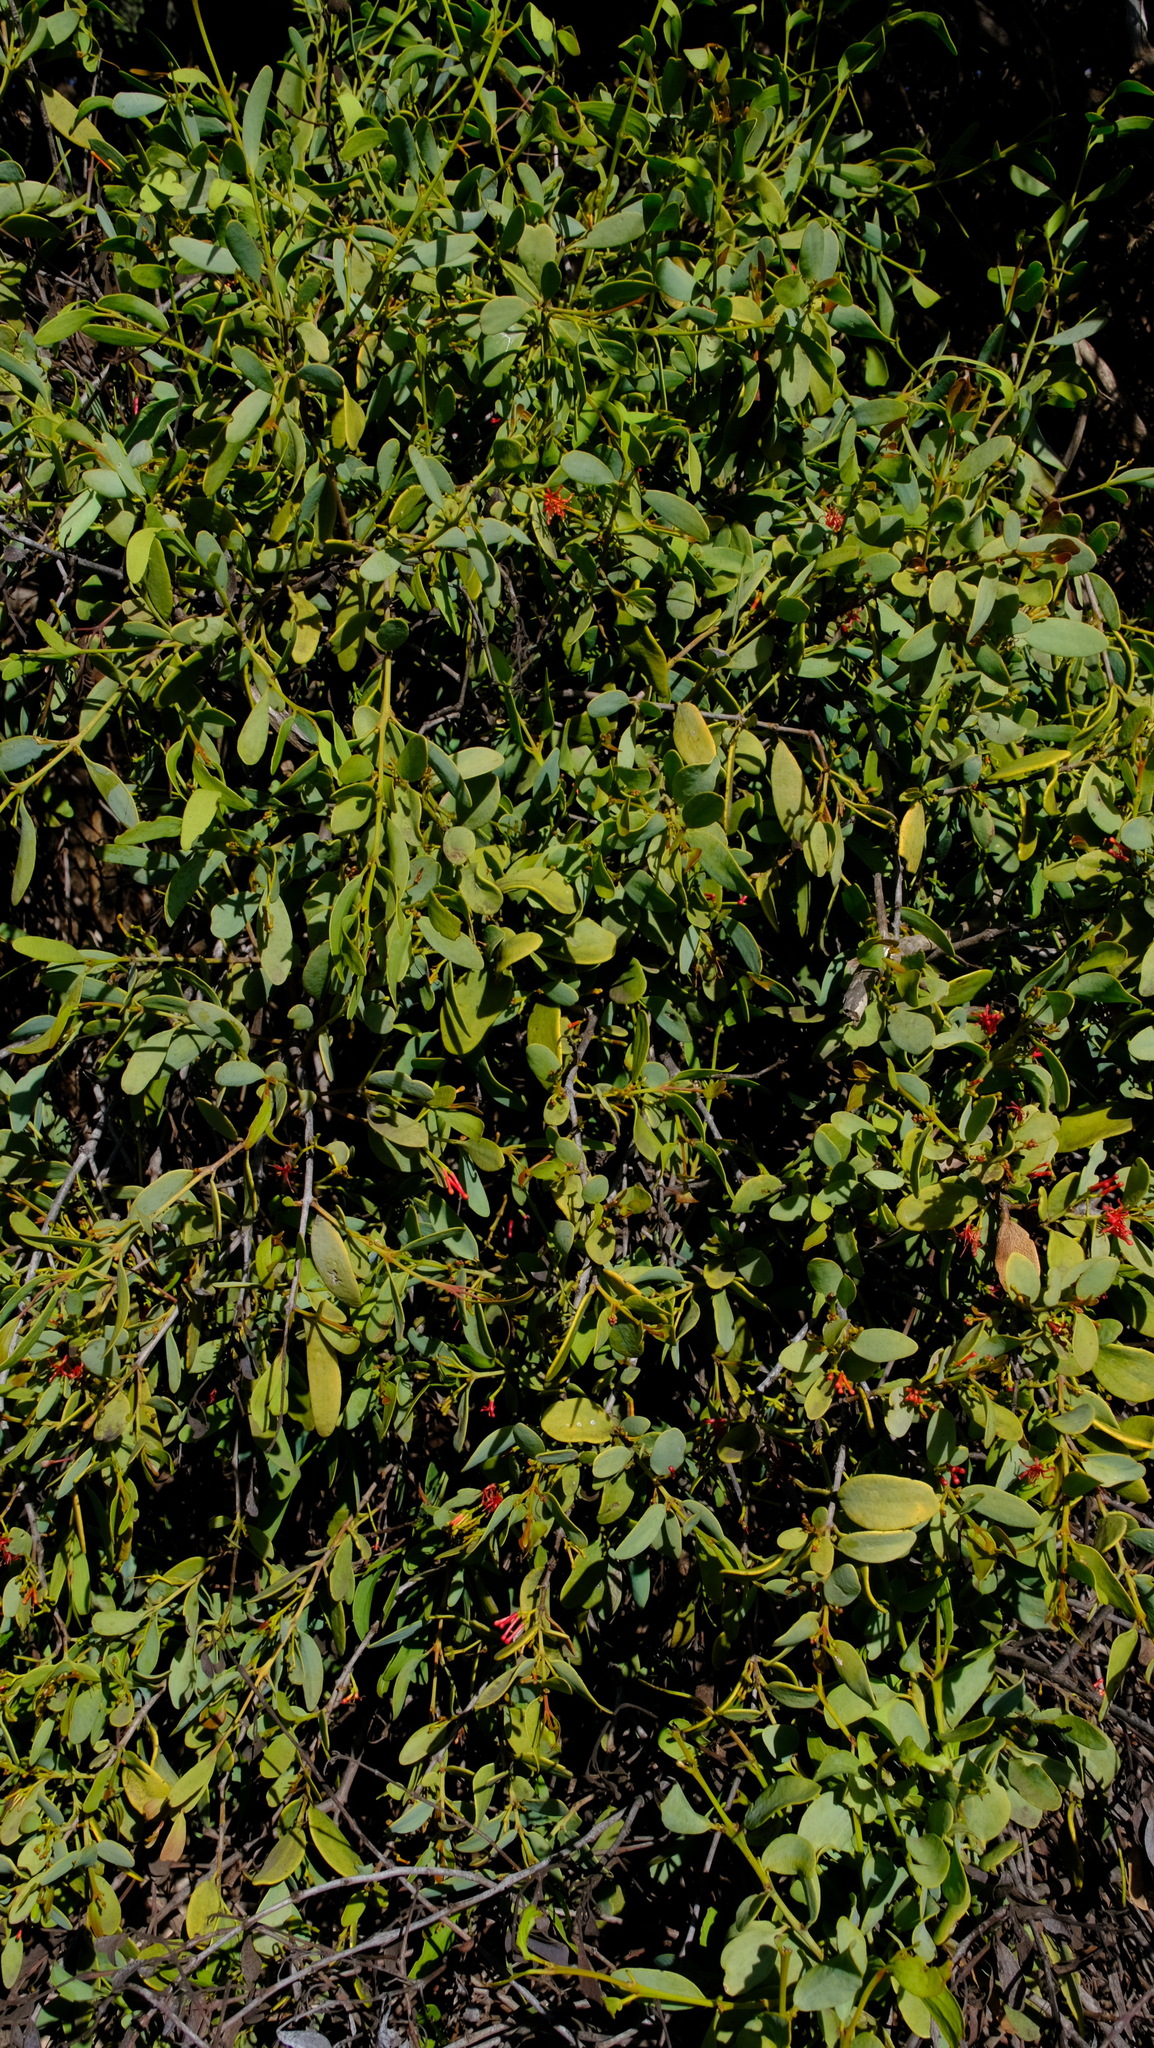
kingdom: Plantae
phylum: Tracheophyta
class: Magnoliopsida
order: Santalales
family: Loranthaceae
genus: Amyema
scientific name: Amyema miraculosa
